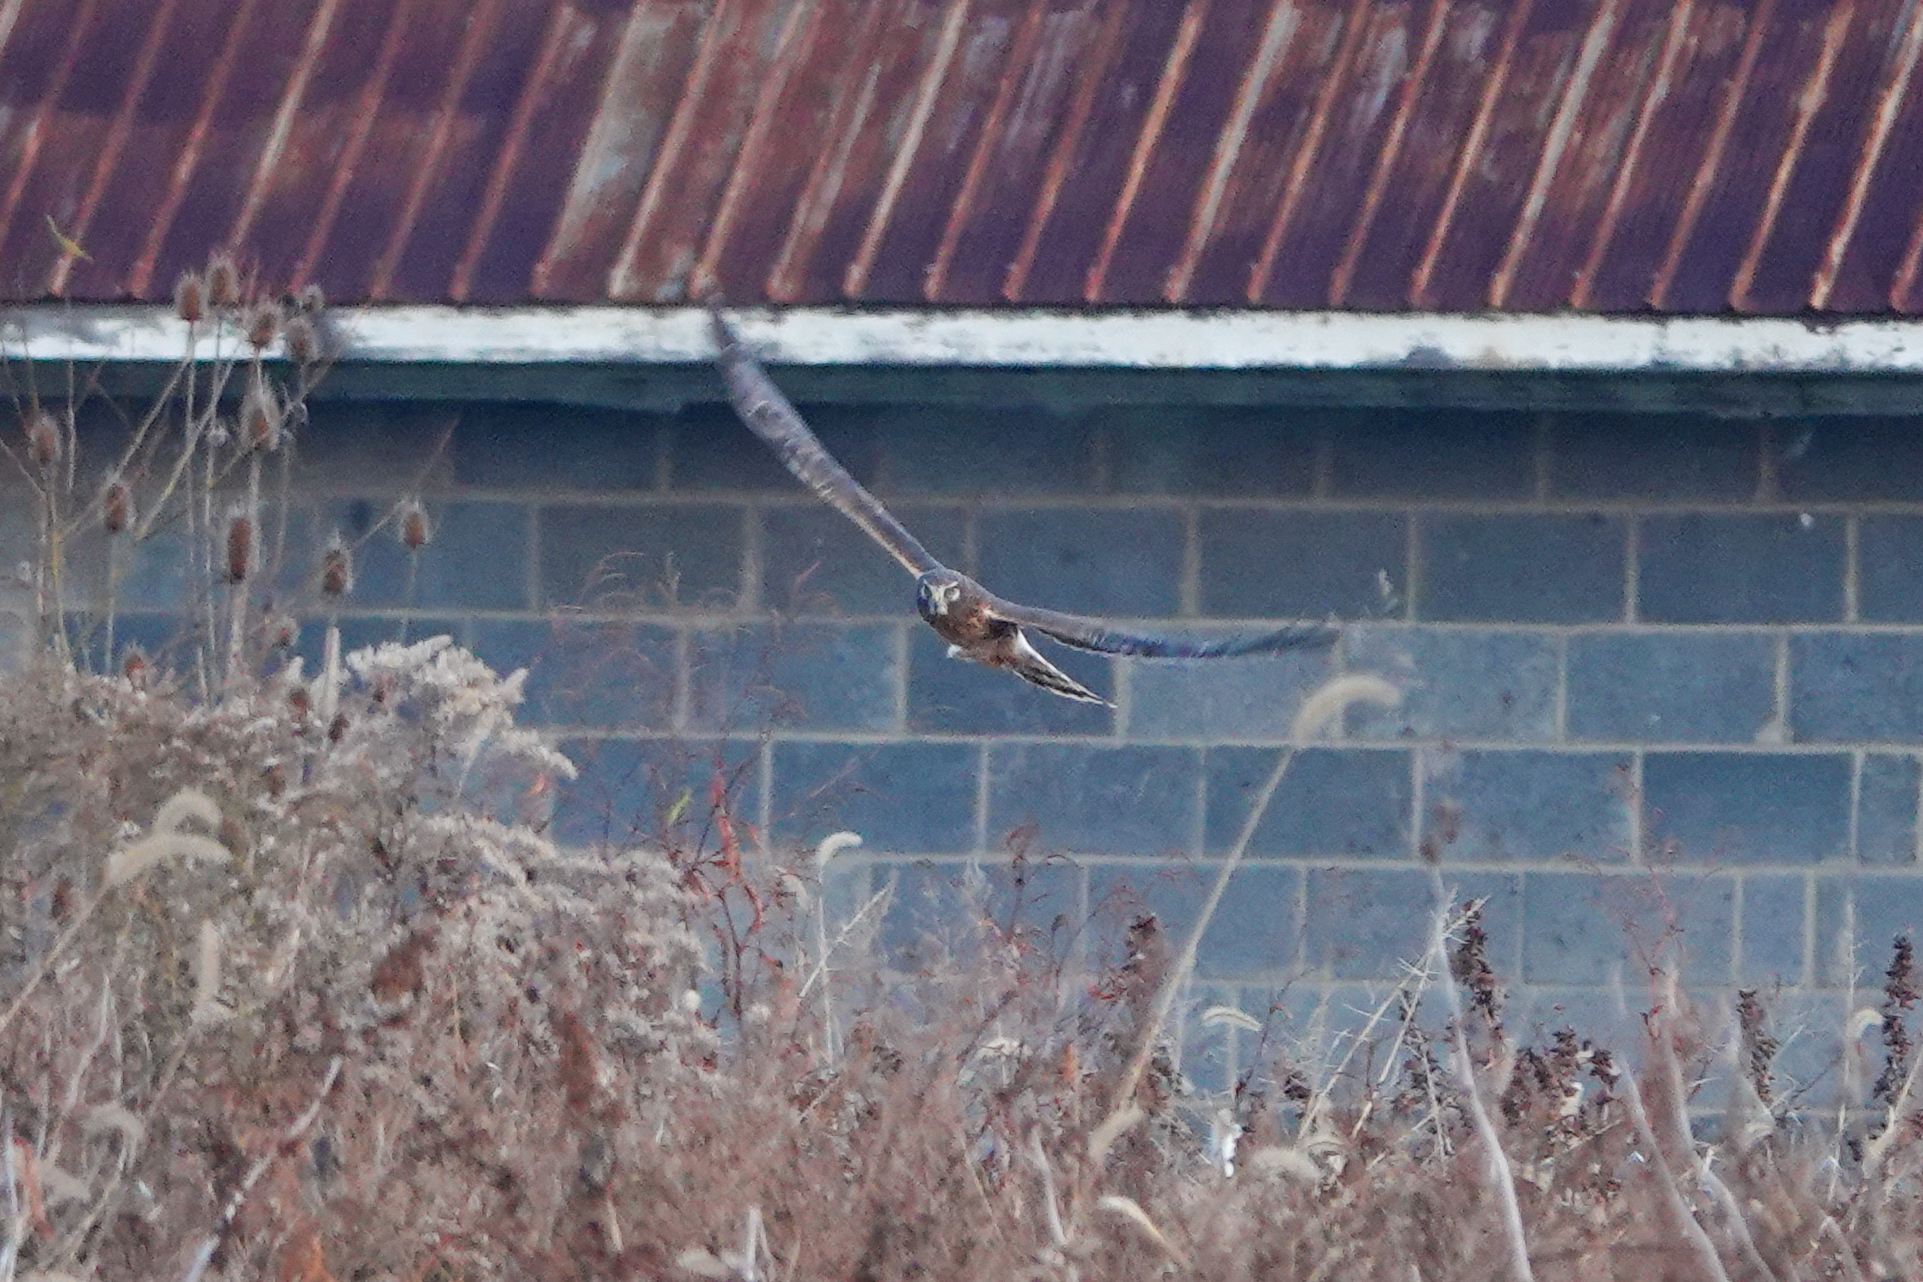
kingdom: Animalia
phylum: Chordata
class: Aves
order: Accipitriformes
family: Accipitridae
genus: Circus
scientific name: Circus cyaneus
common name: Hen harrier
